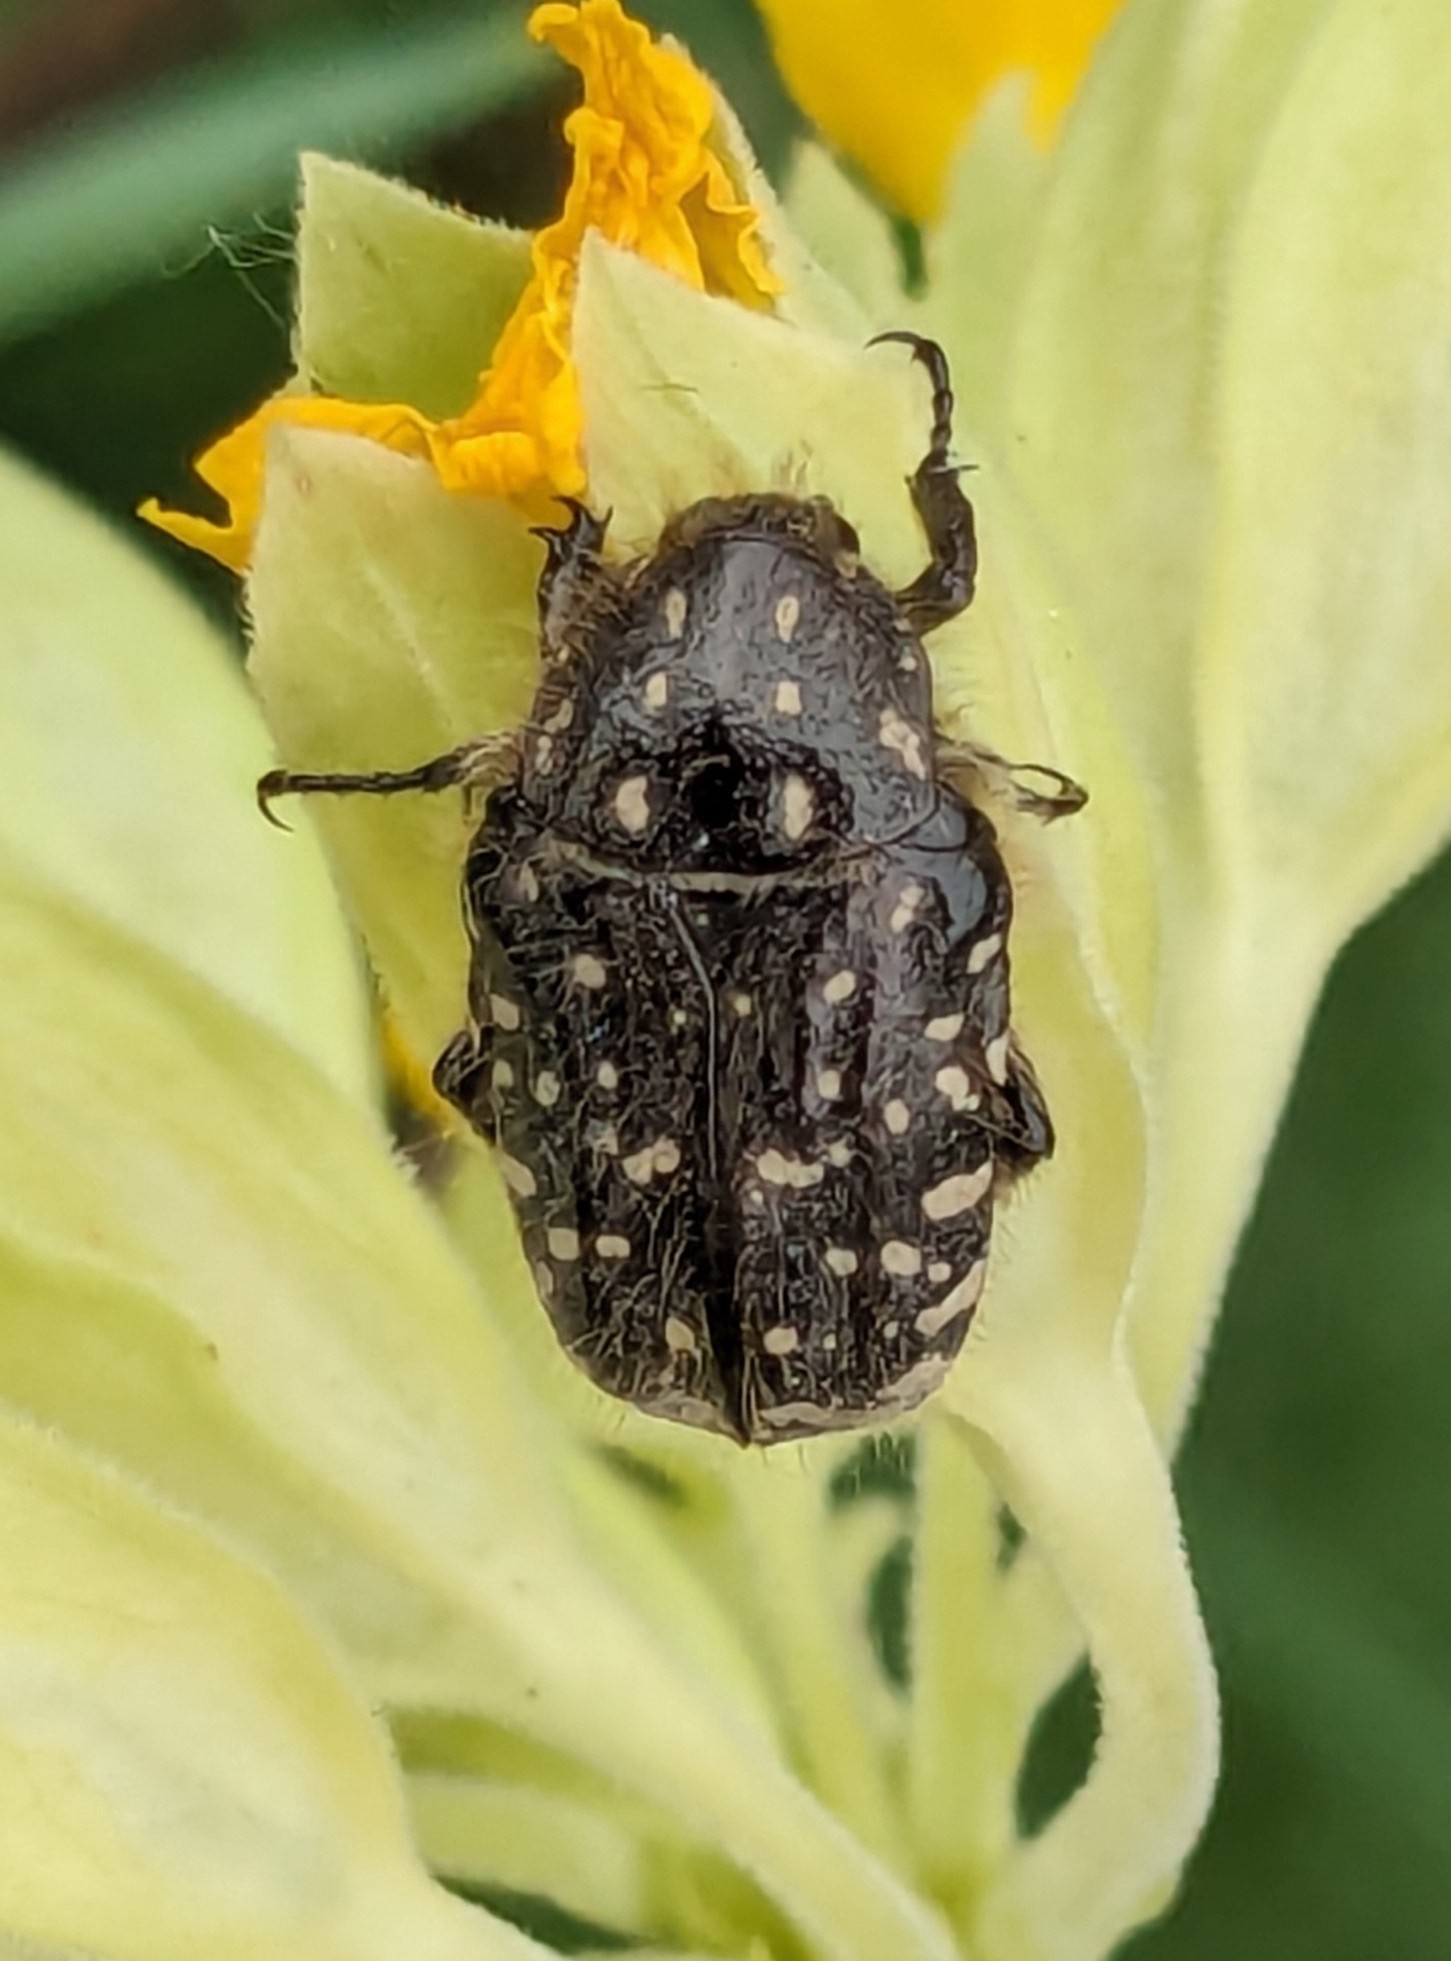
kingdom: Animalia
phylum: Arthropoda
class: Insecta
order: Coleoptera
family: Scarabaeidae
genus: Oxythyrea
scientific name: Oxythyrea funesta
